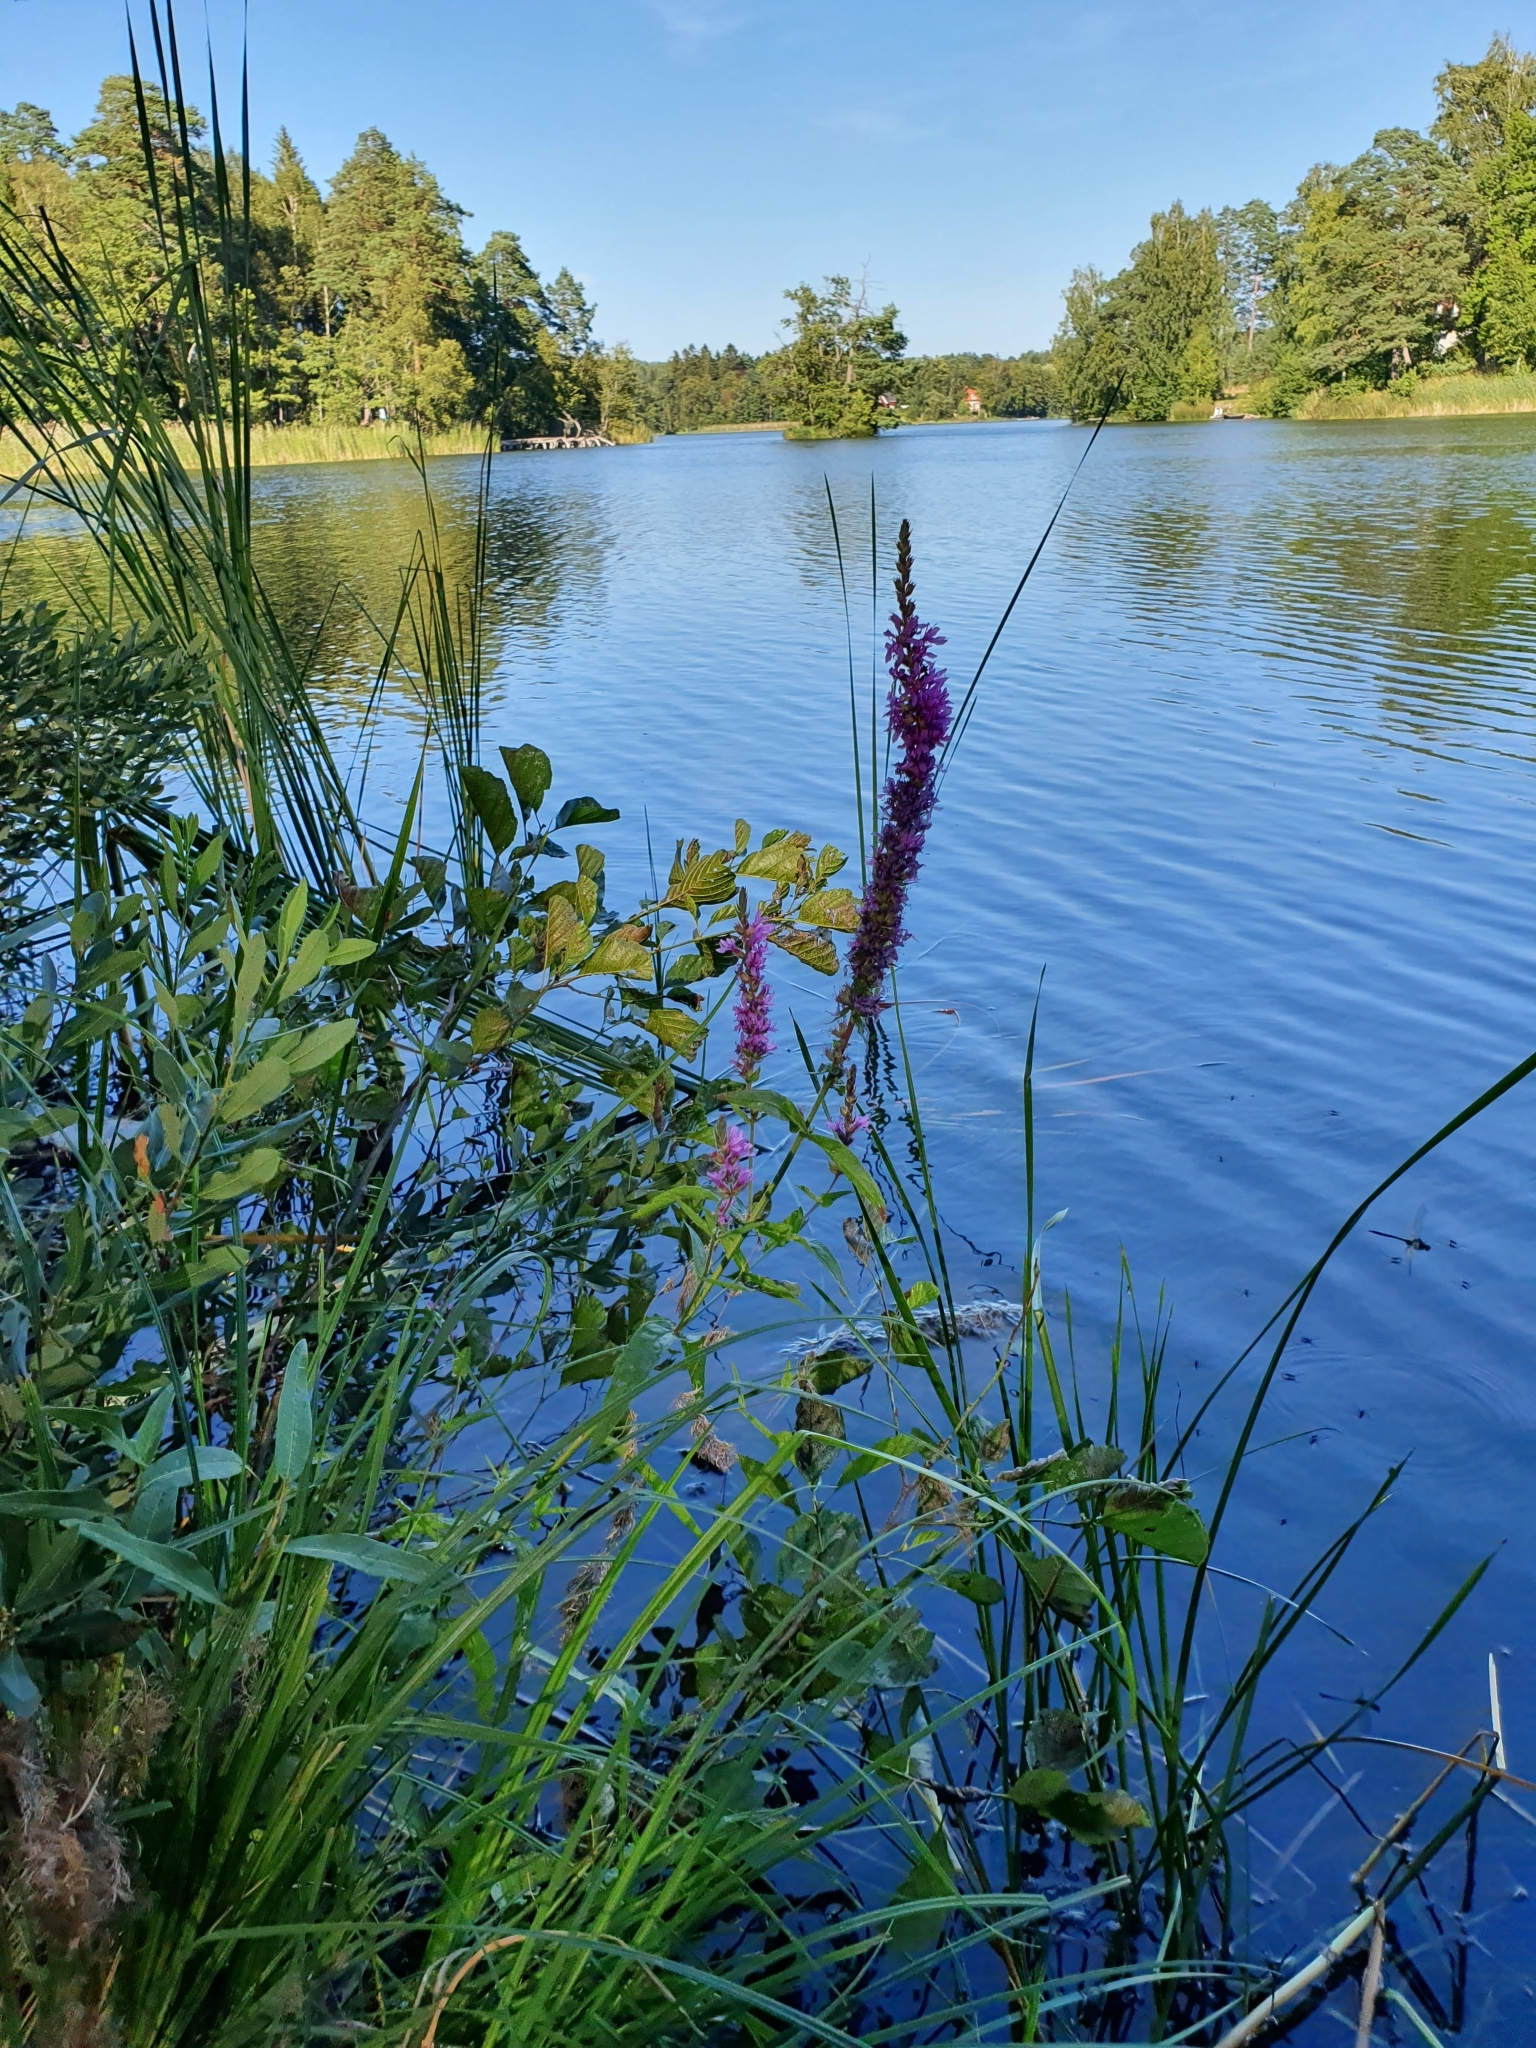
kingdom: Plantae
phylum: Tracheophyta
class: Magnoliopsida
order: Myrtales
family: Lythraceae
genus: Lythrum
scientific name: Lythrum salicaria
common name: Purple loosestrife
